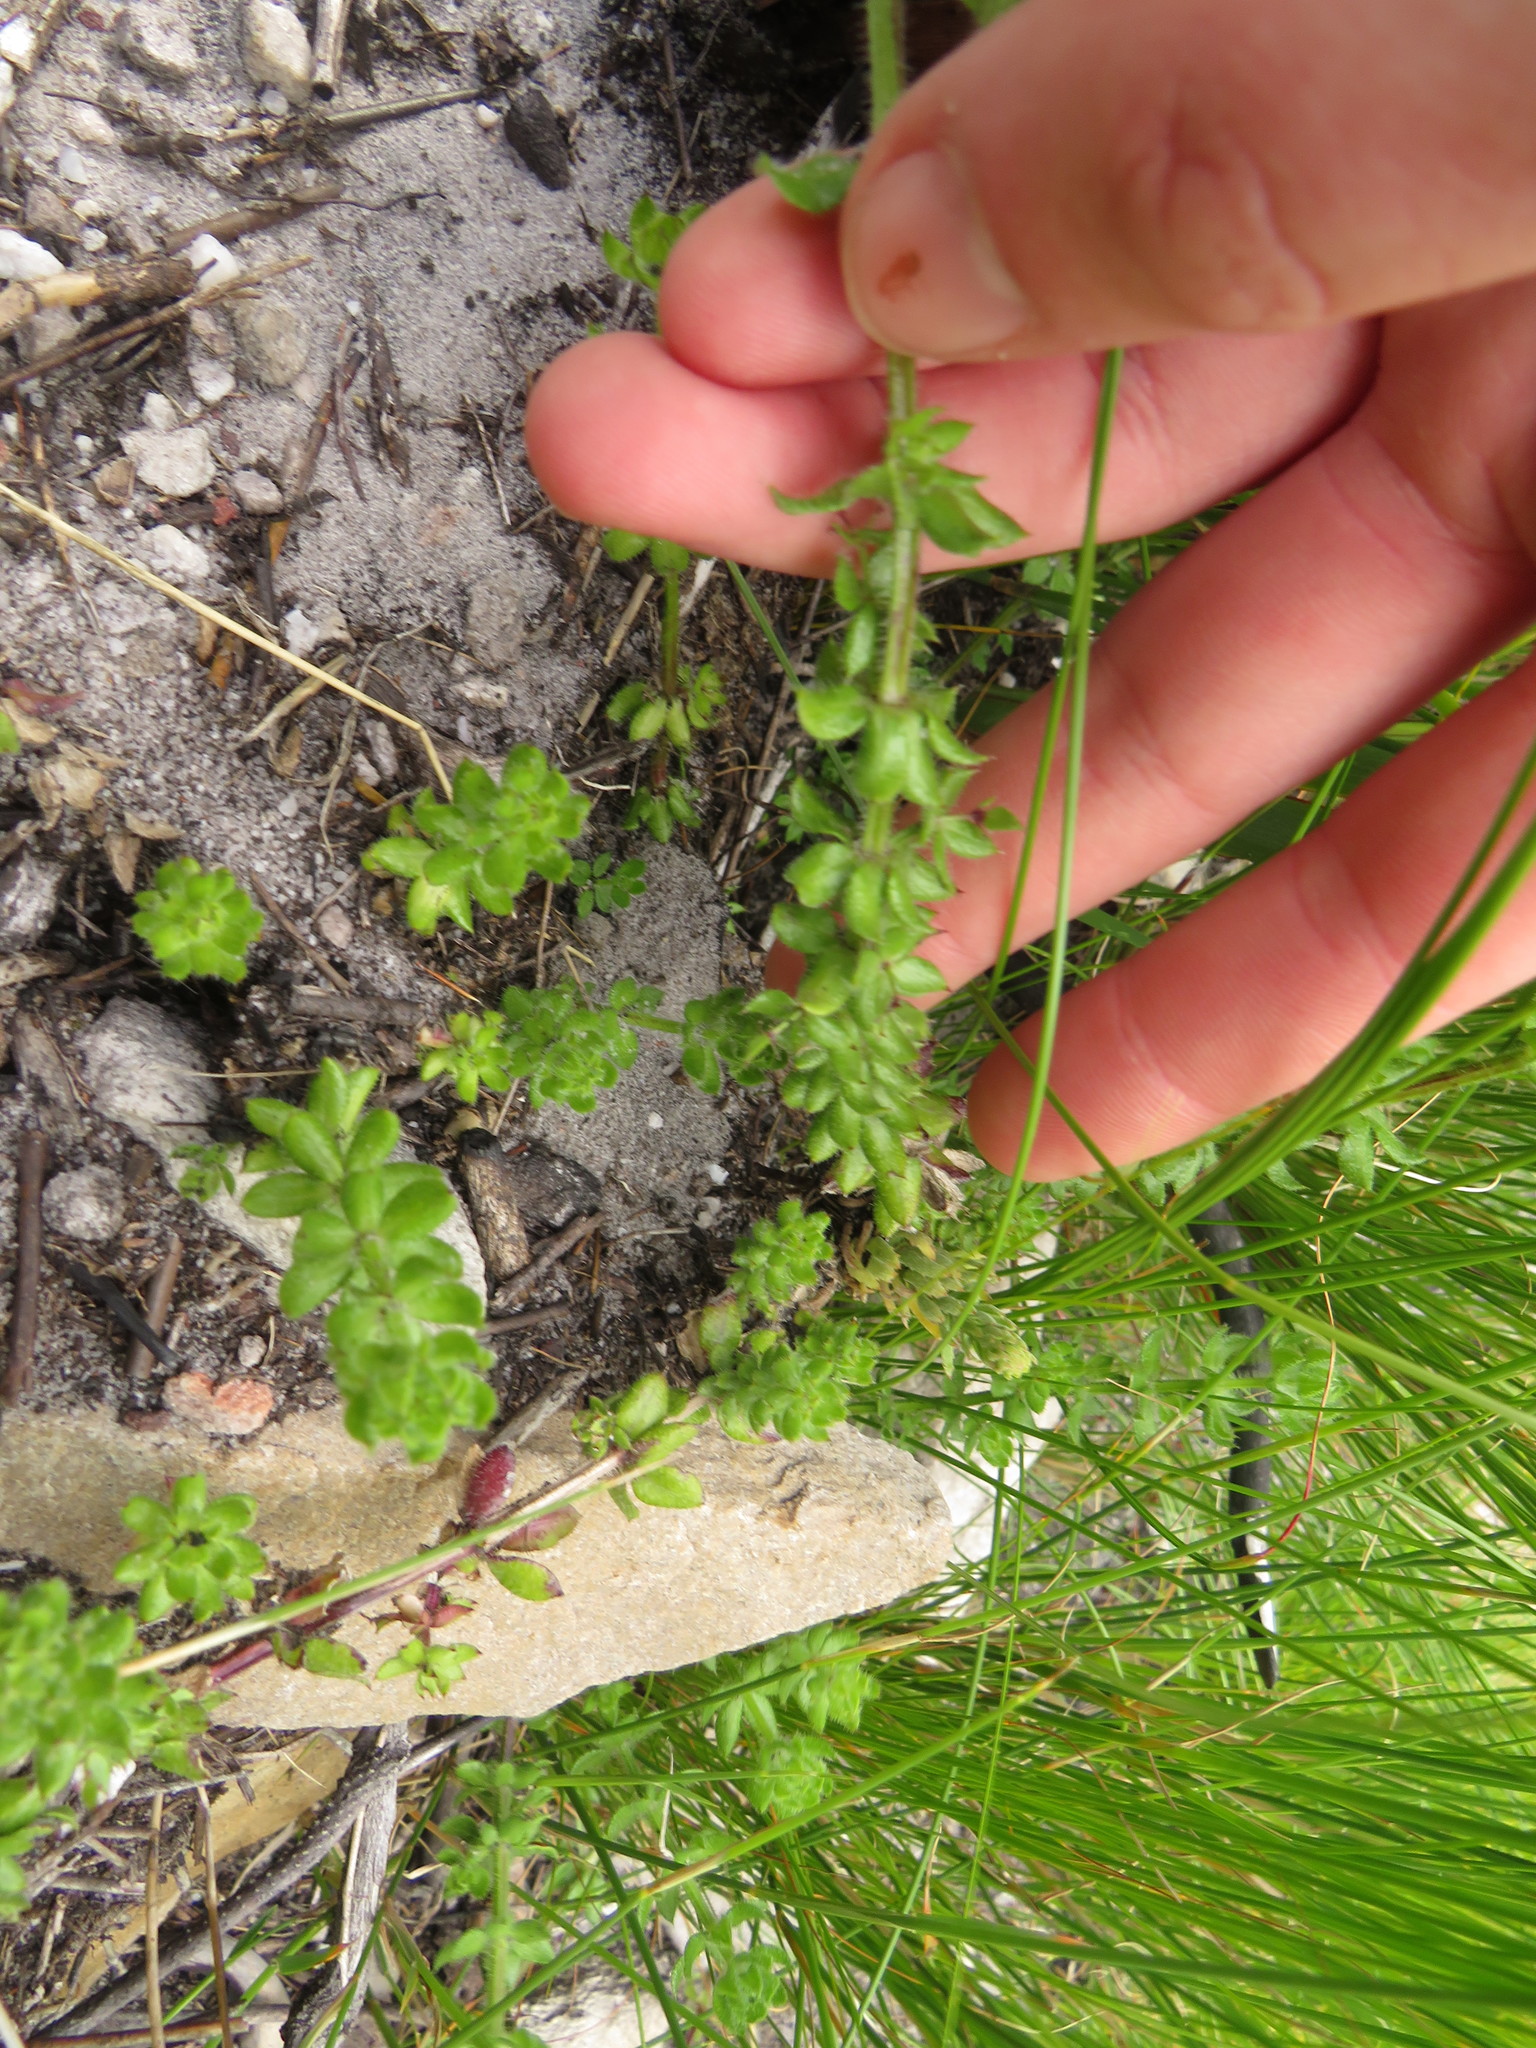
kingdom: Plantae
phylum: Tracheophyta
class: Magnoliopsida
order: Gentianales
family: Rubiaceae
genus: Galium
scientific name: Galium subvillosum
